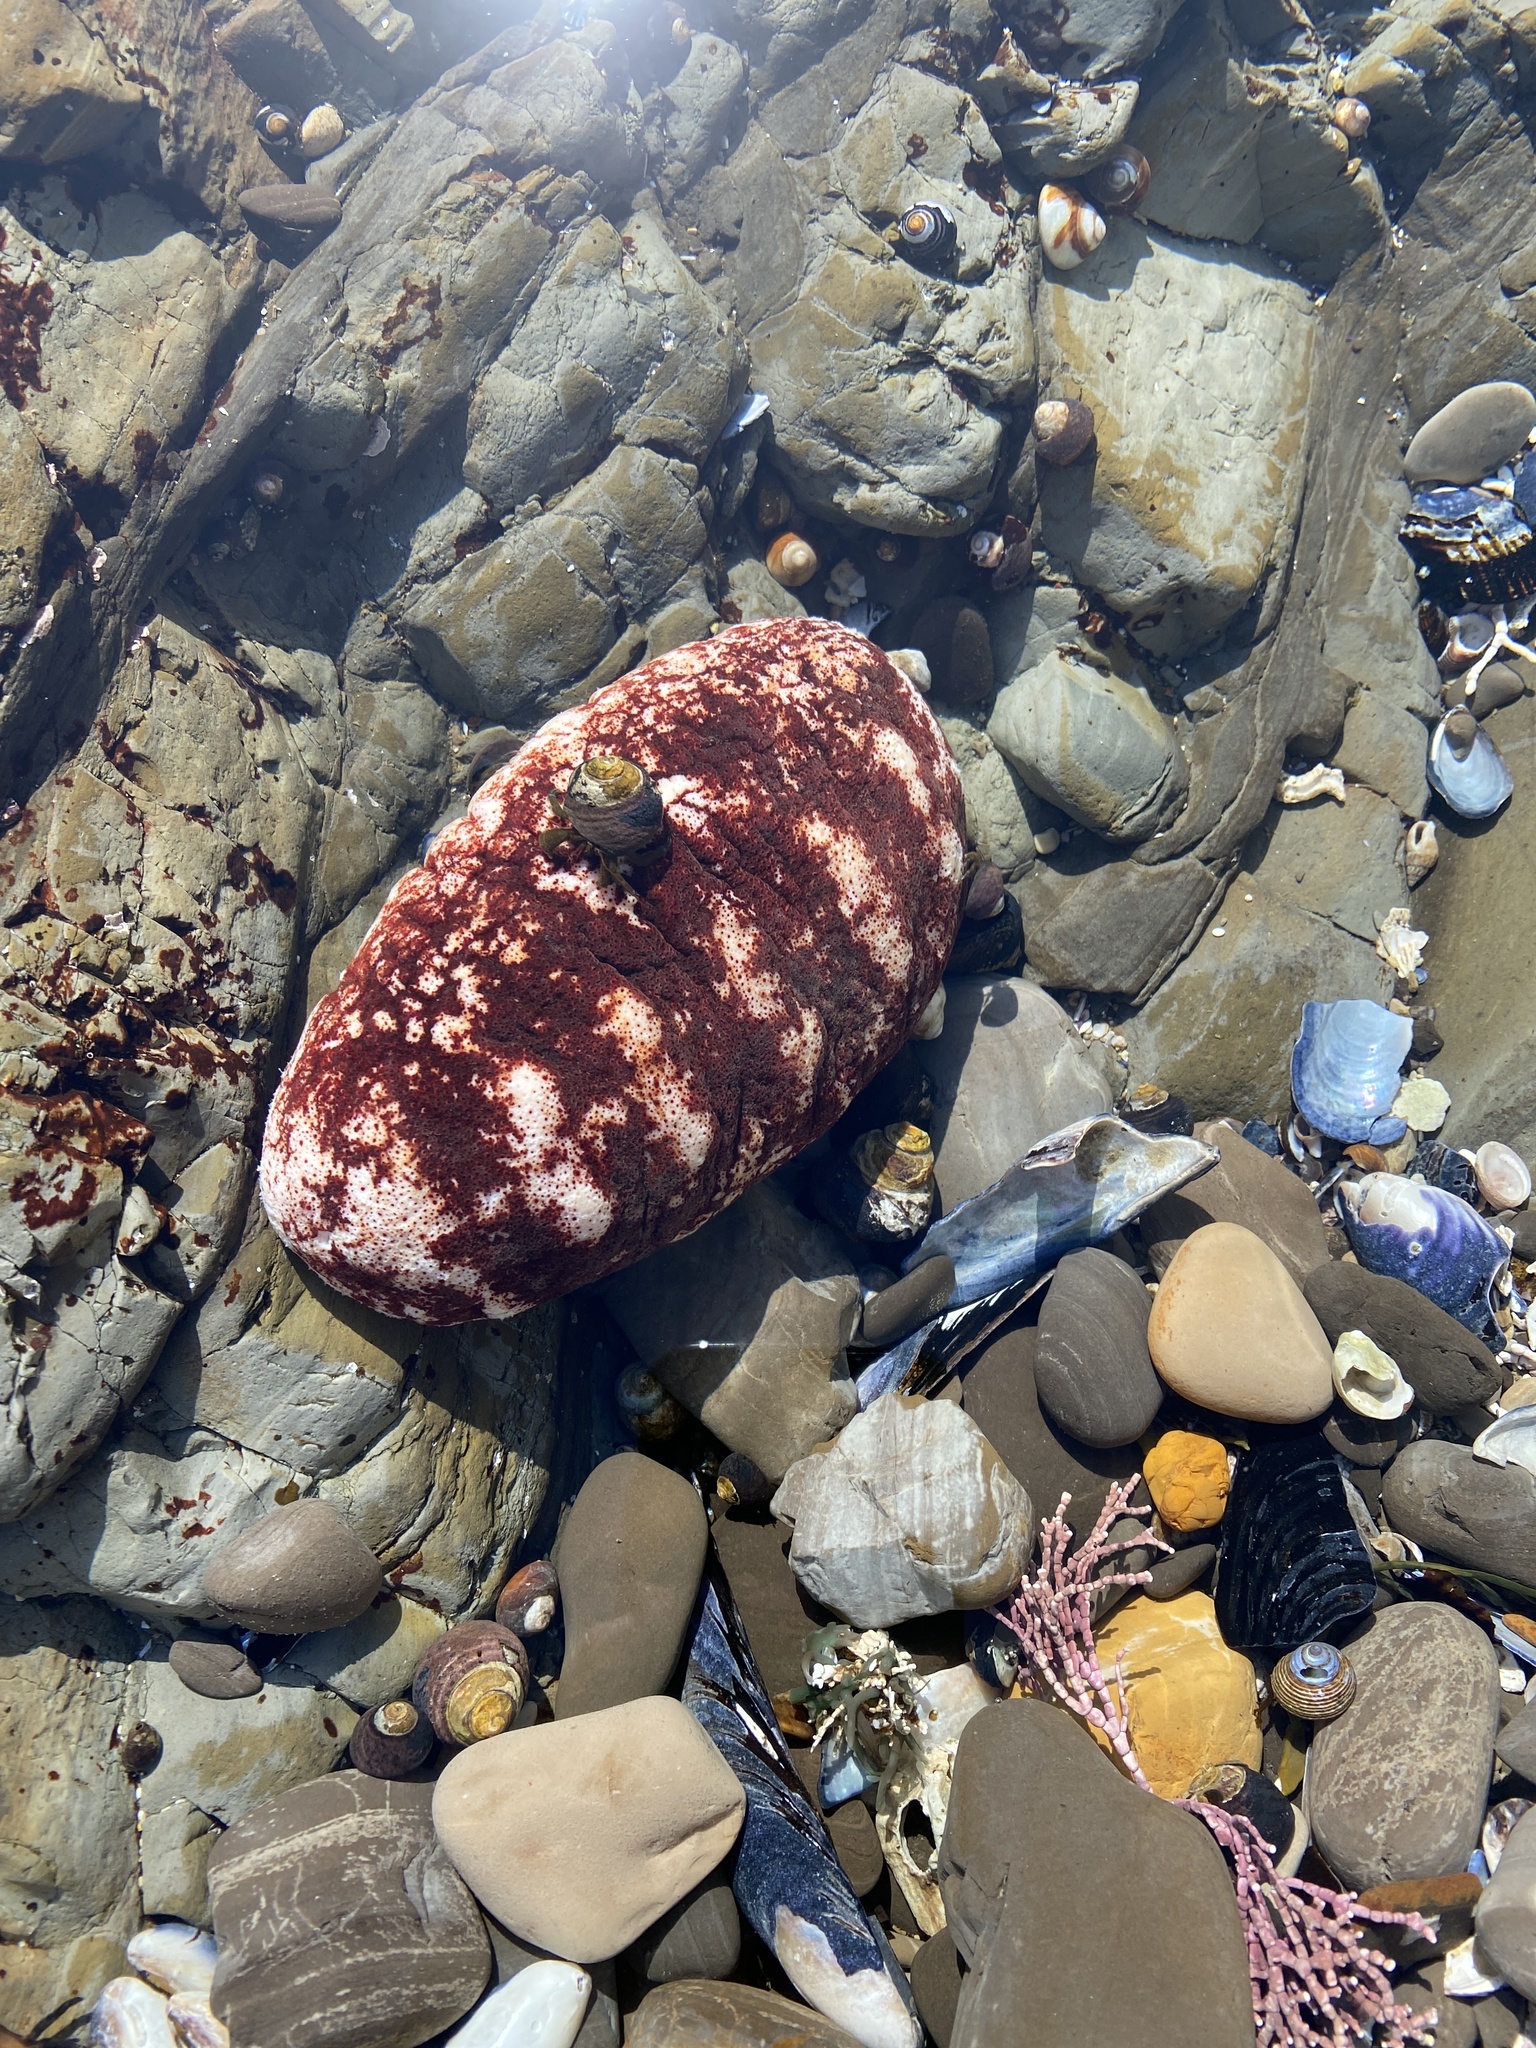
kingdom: Animalia
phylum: Mollusca
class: Polyplacophora
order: Chitonida
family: Acanthochitonidae
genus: Cryptochiton
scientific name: Cryptochiton stelleri
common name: Giant pacific chiton
